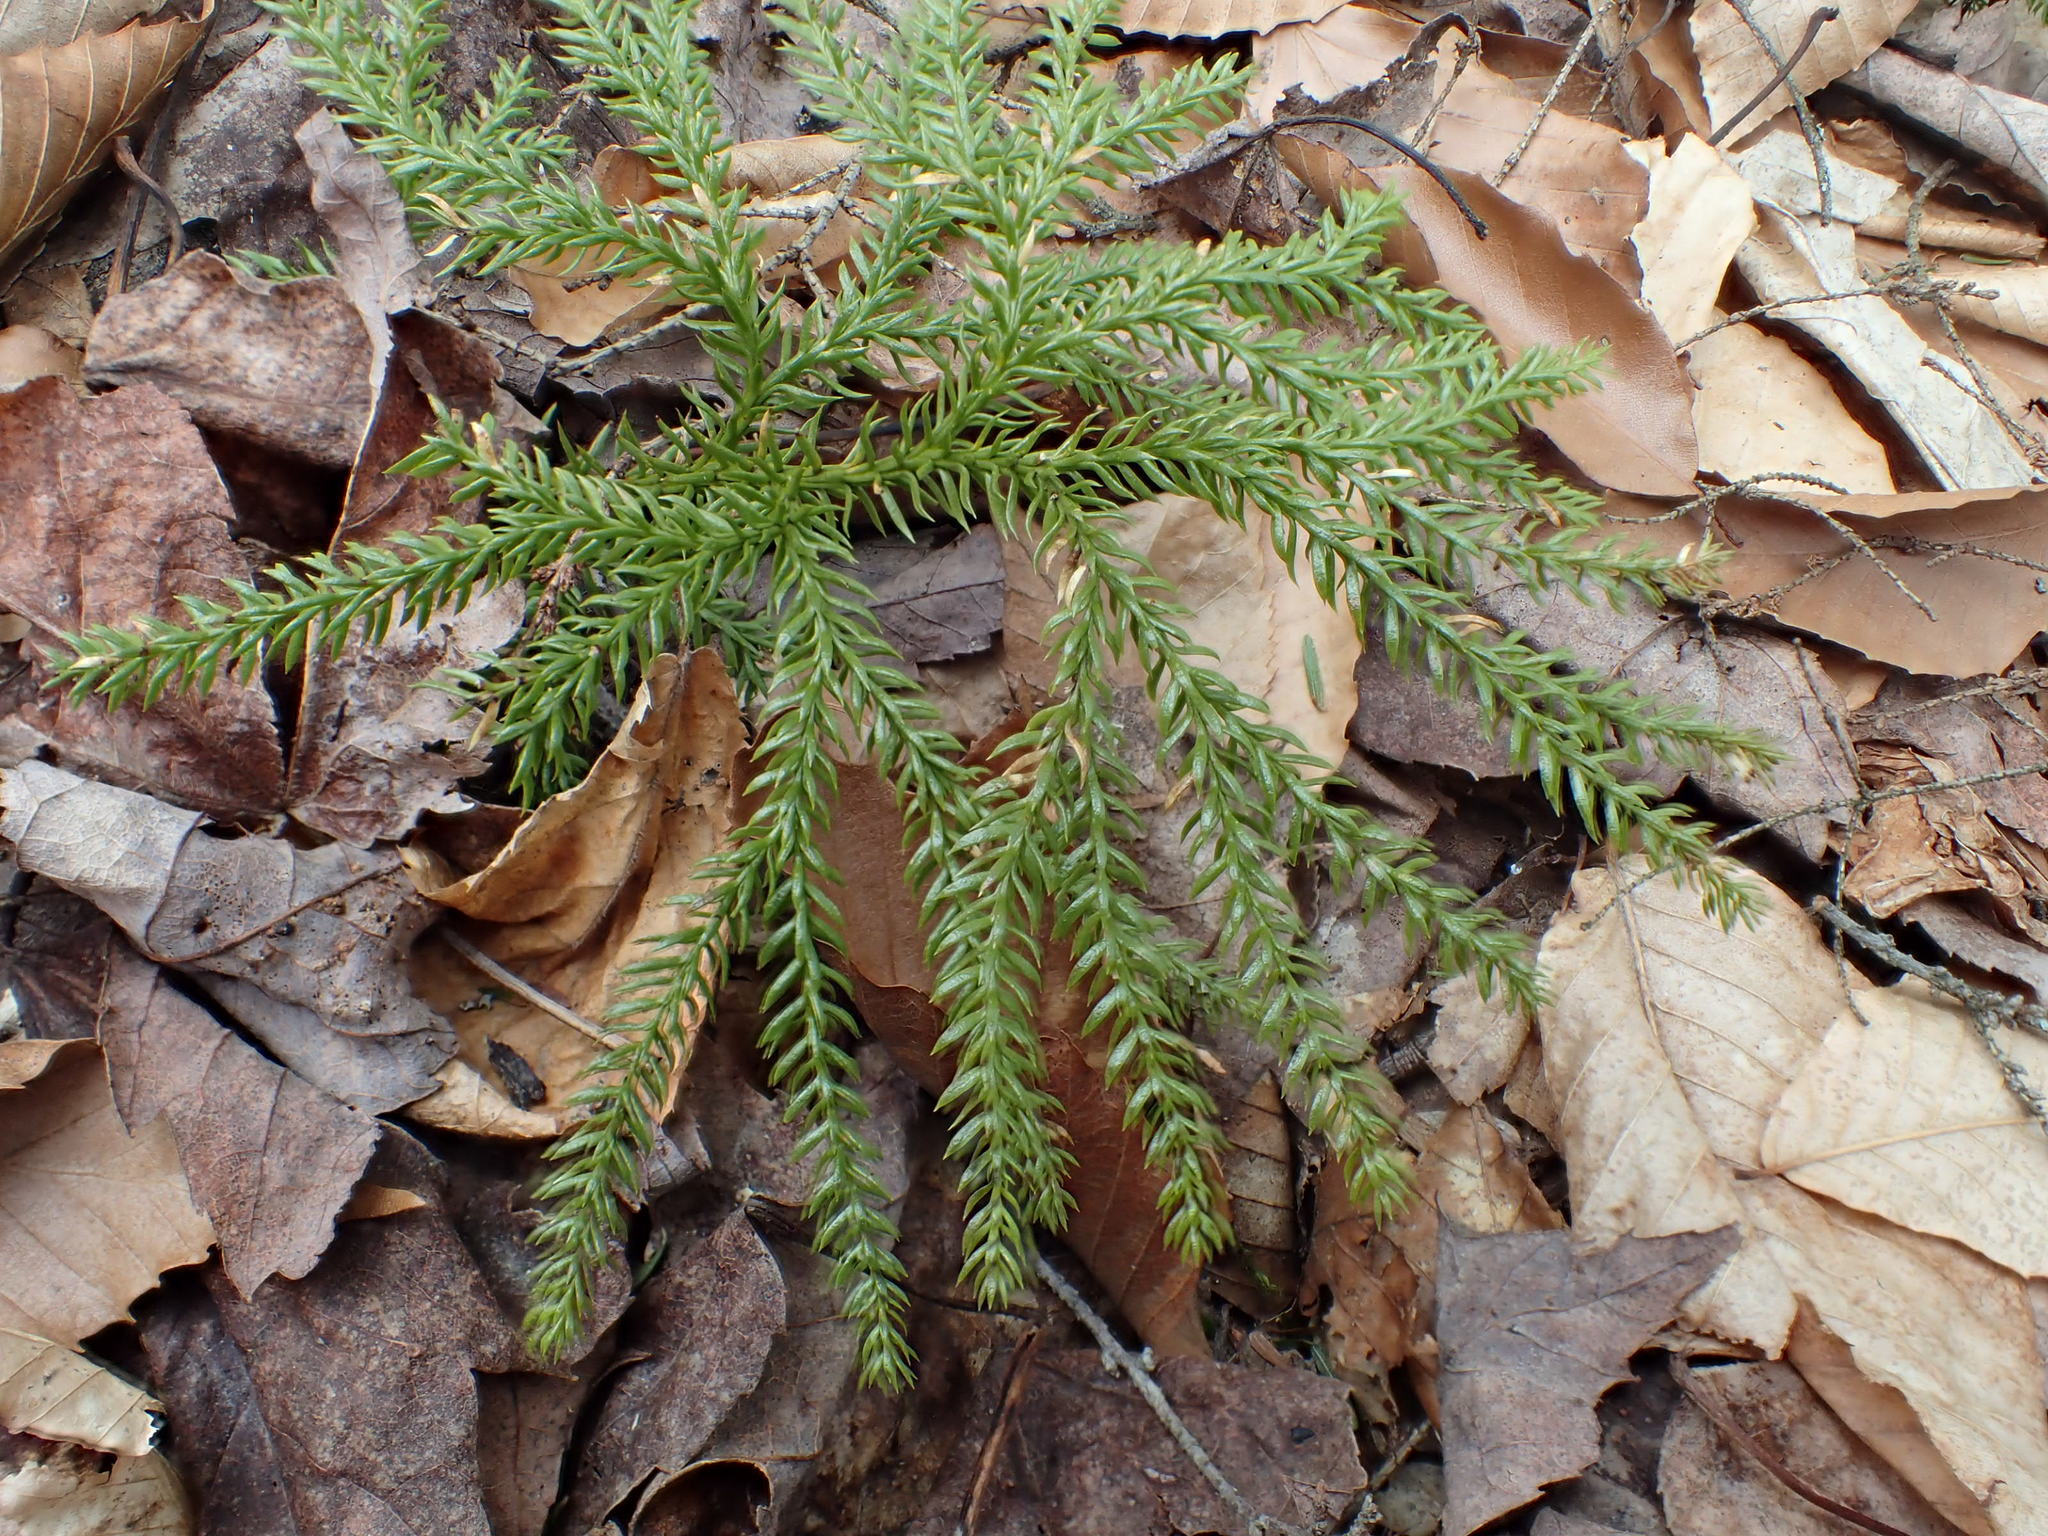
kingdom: Plantae
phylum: Tracheophyta
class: Lycopodiopsida
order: Lycopodiales
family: Lycopodiaceae
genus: Dendrolycopodium
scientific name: Dendrolycopodium obscurum
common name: Common ground-pine
